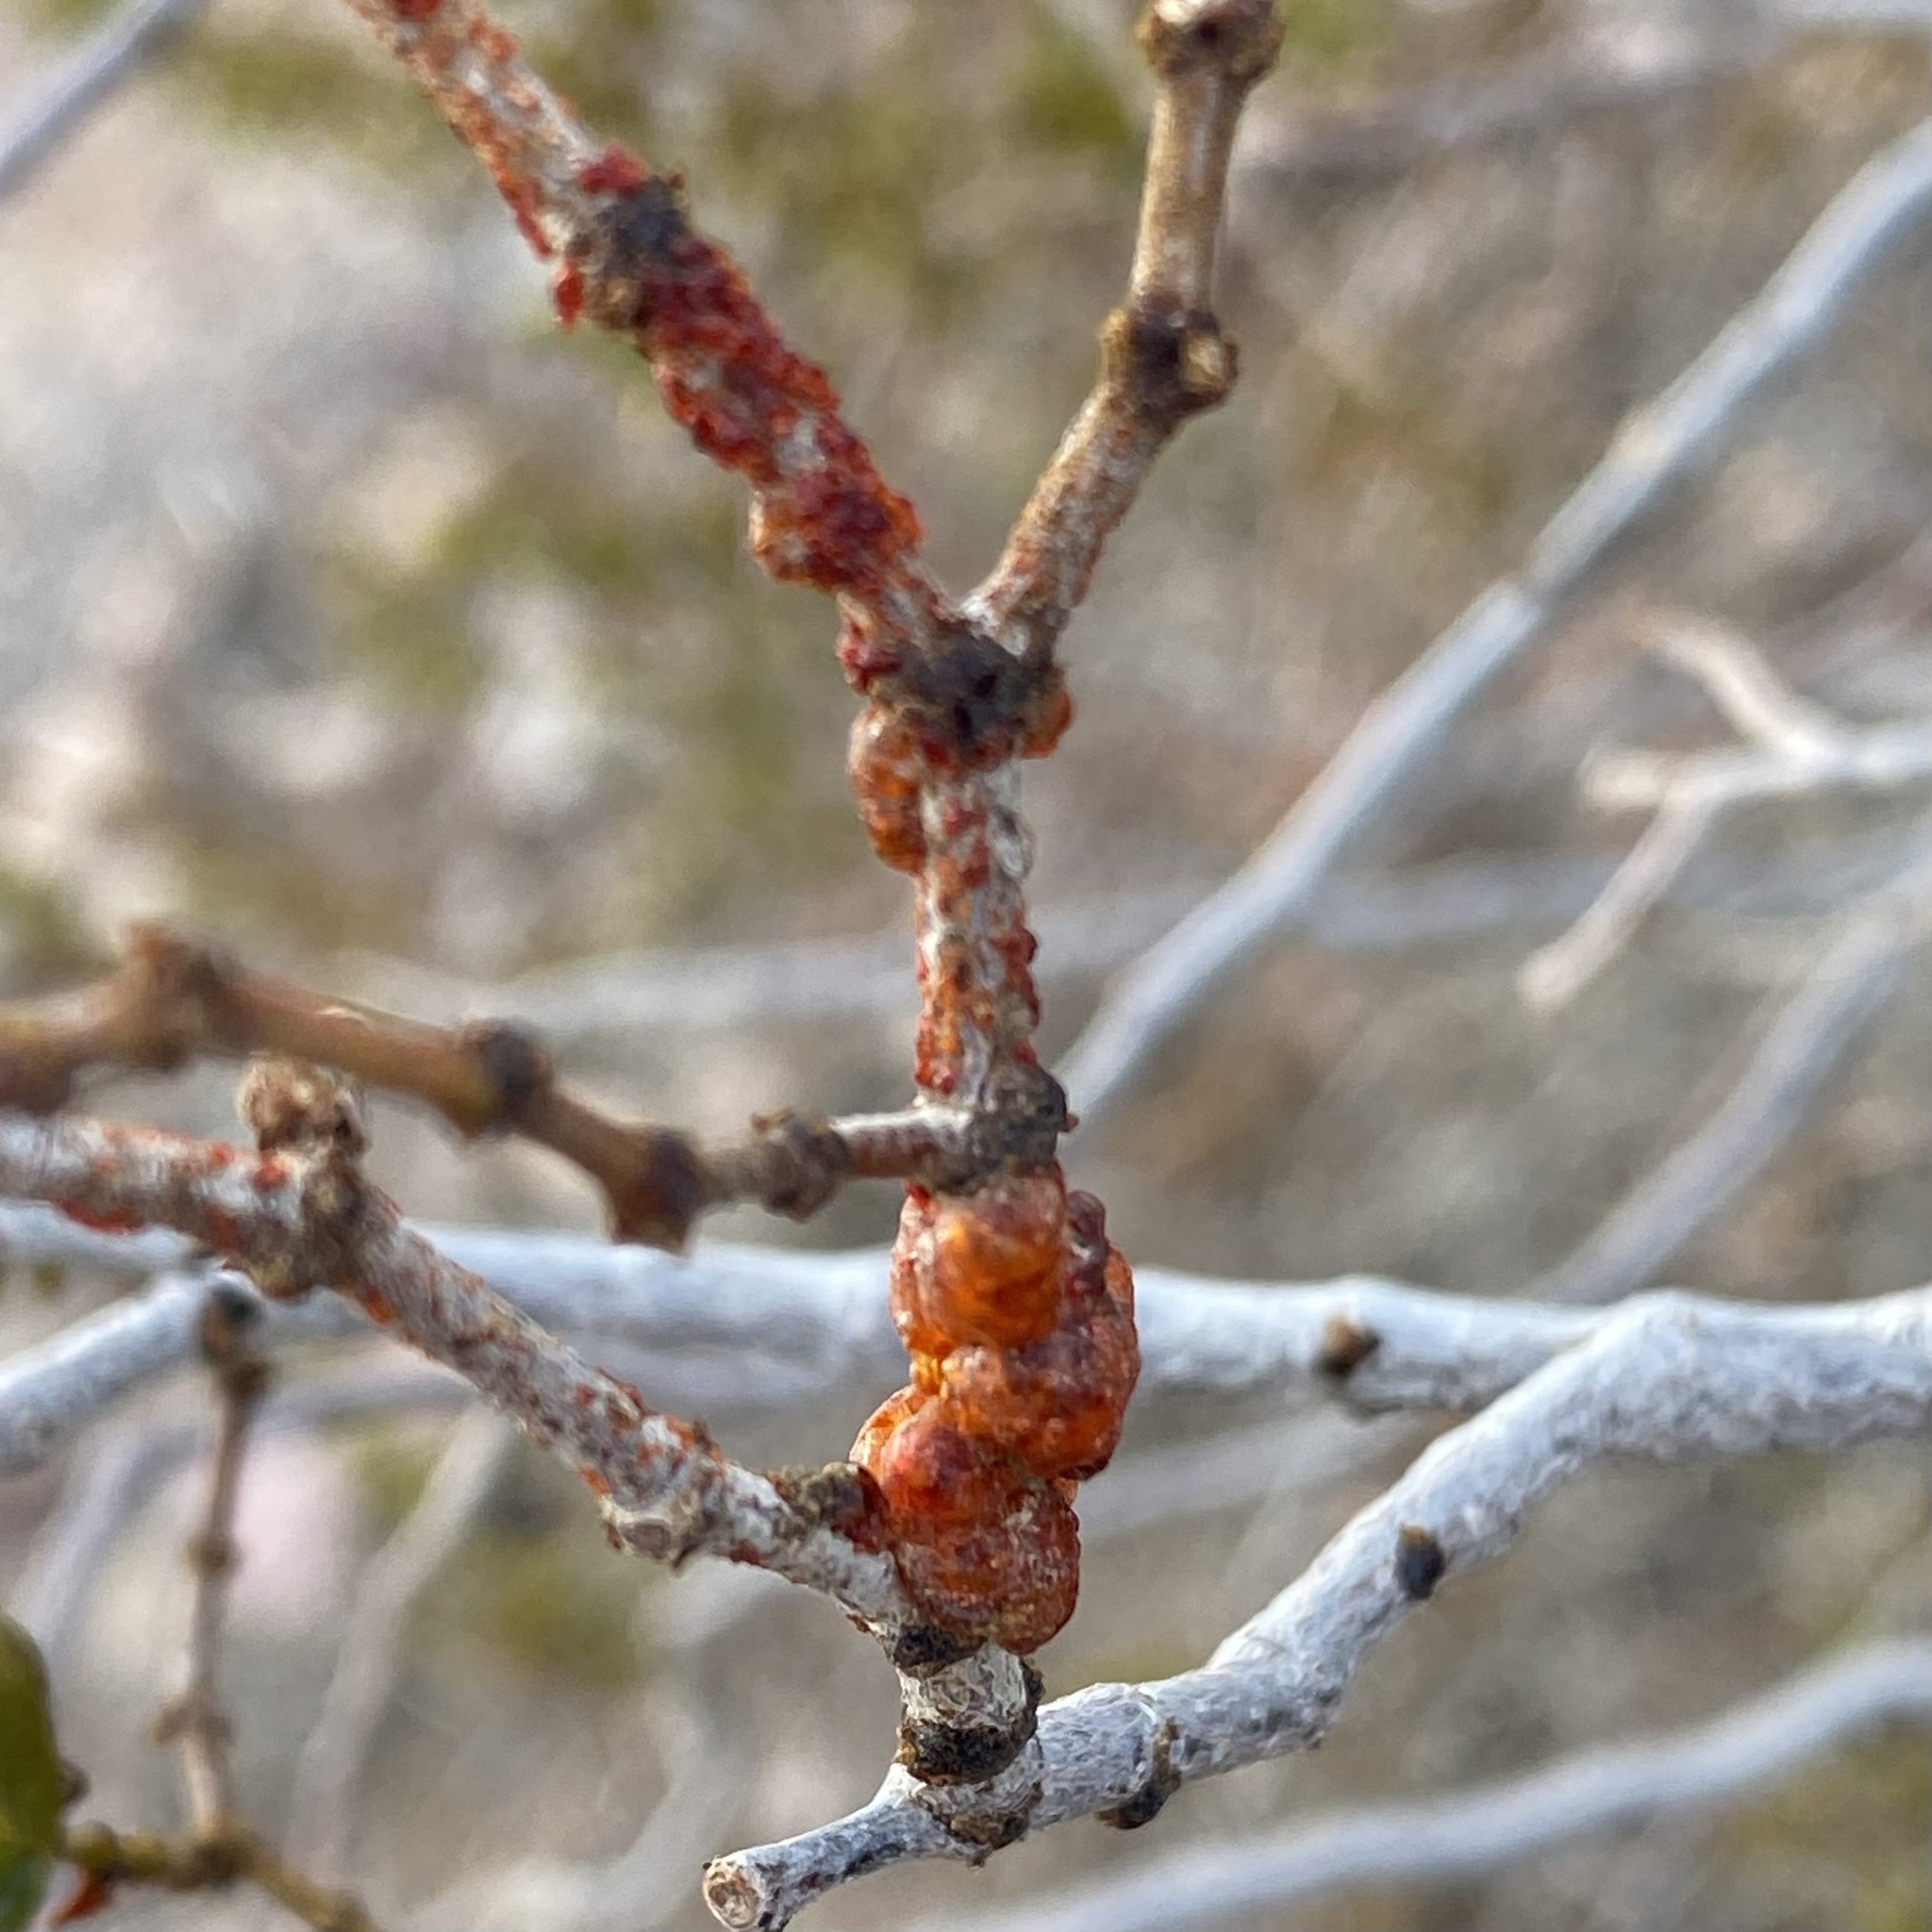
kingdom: Animalia
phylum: Arthropoda
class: Insecta
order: Hemiptera
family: Kerriidae
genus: Tachardiella
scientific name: Tachardiella larreae
